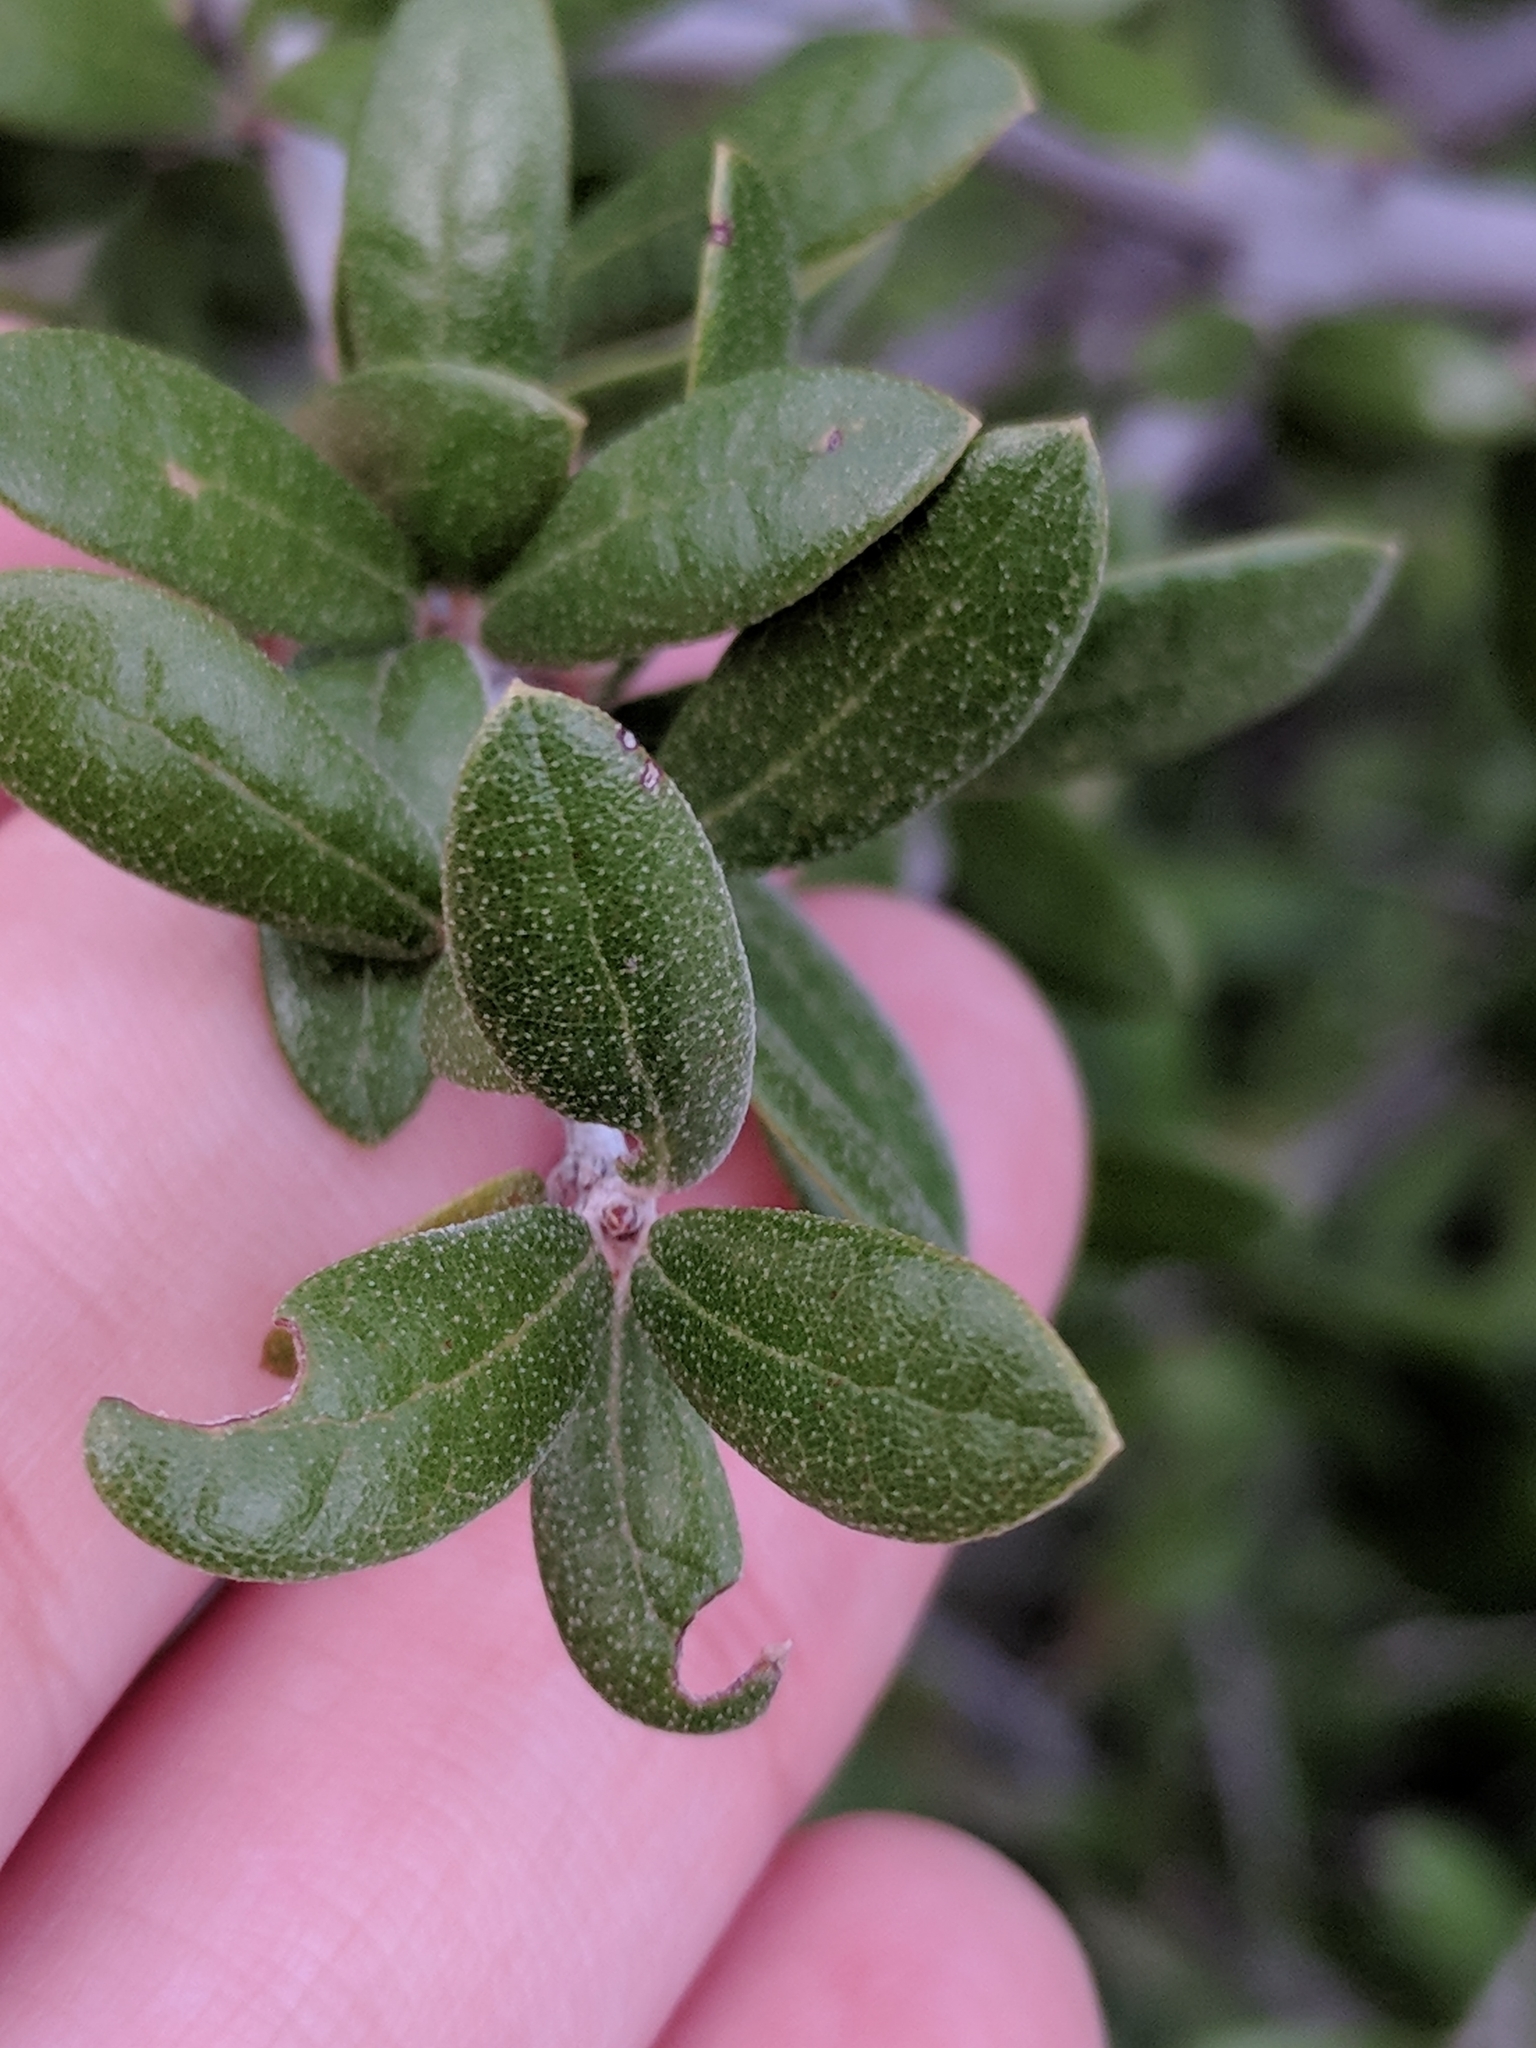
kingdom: Plantae
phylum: Tracheophyta
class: Magnoliopsida
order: Fagales
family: Fagaceae
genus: Quercus
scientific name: Quercus fusiformis
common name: Texas live oak
